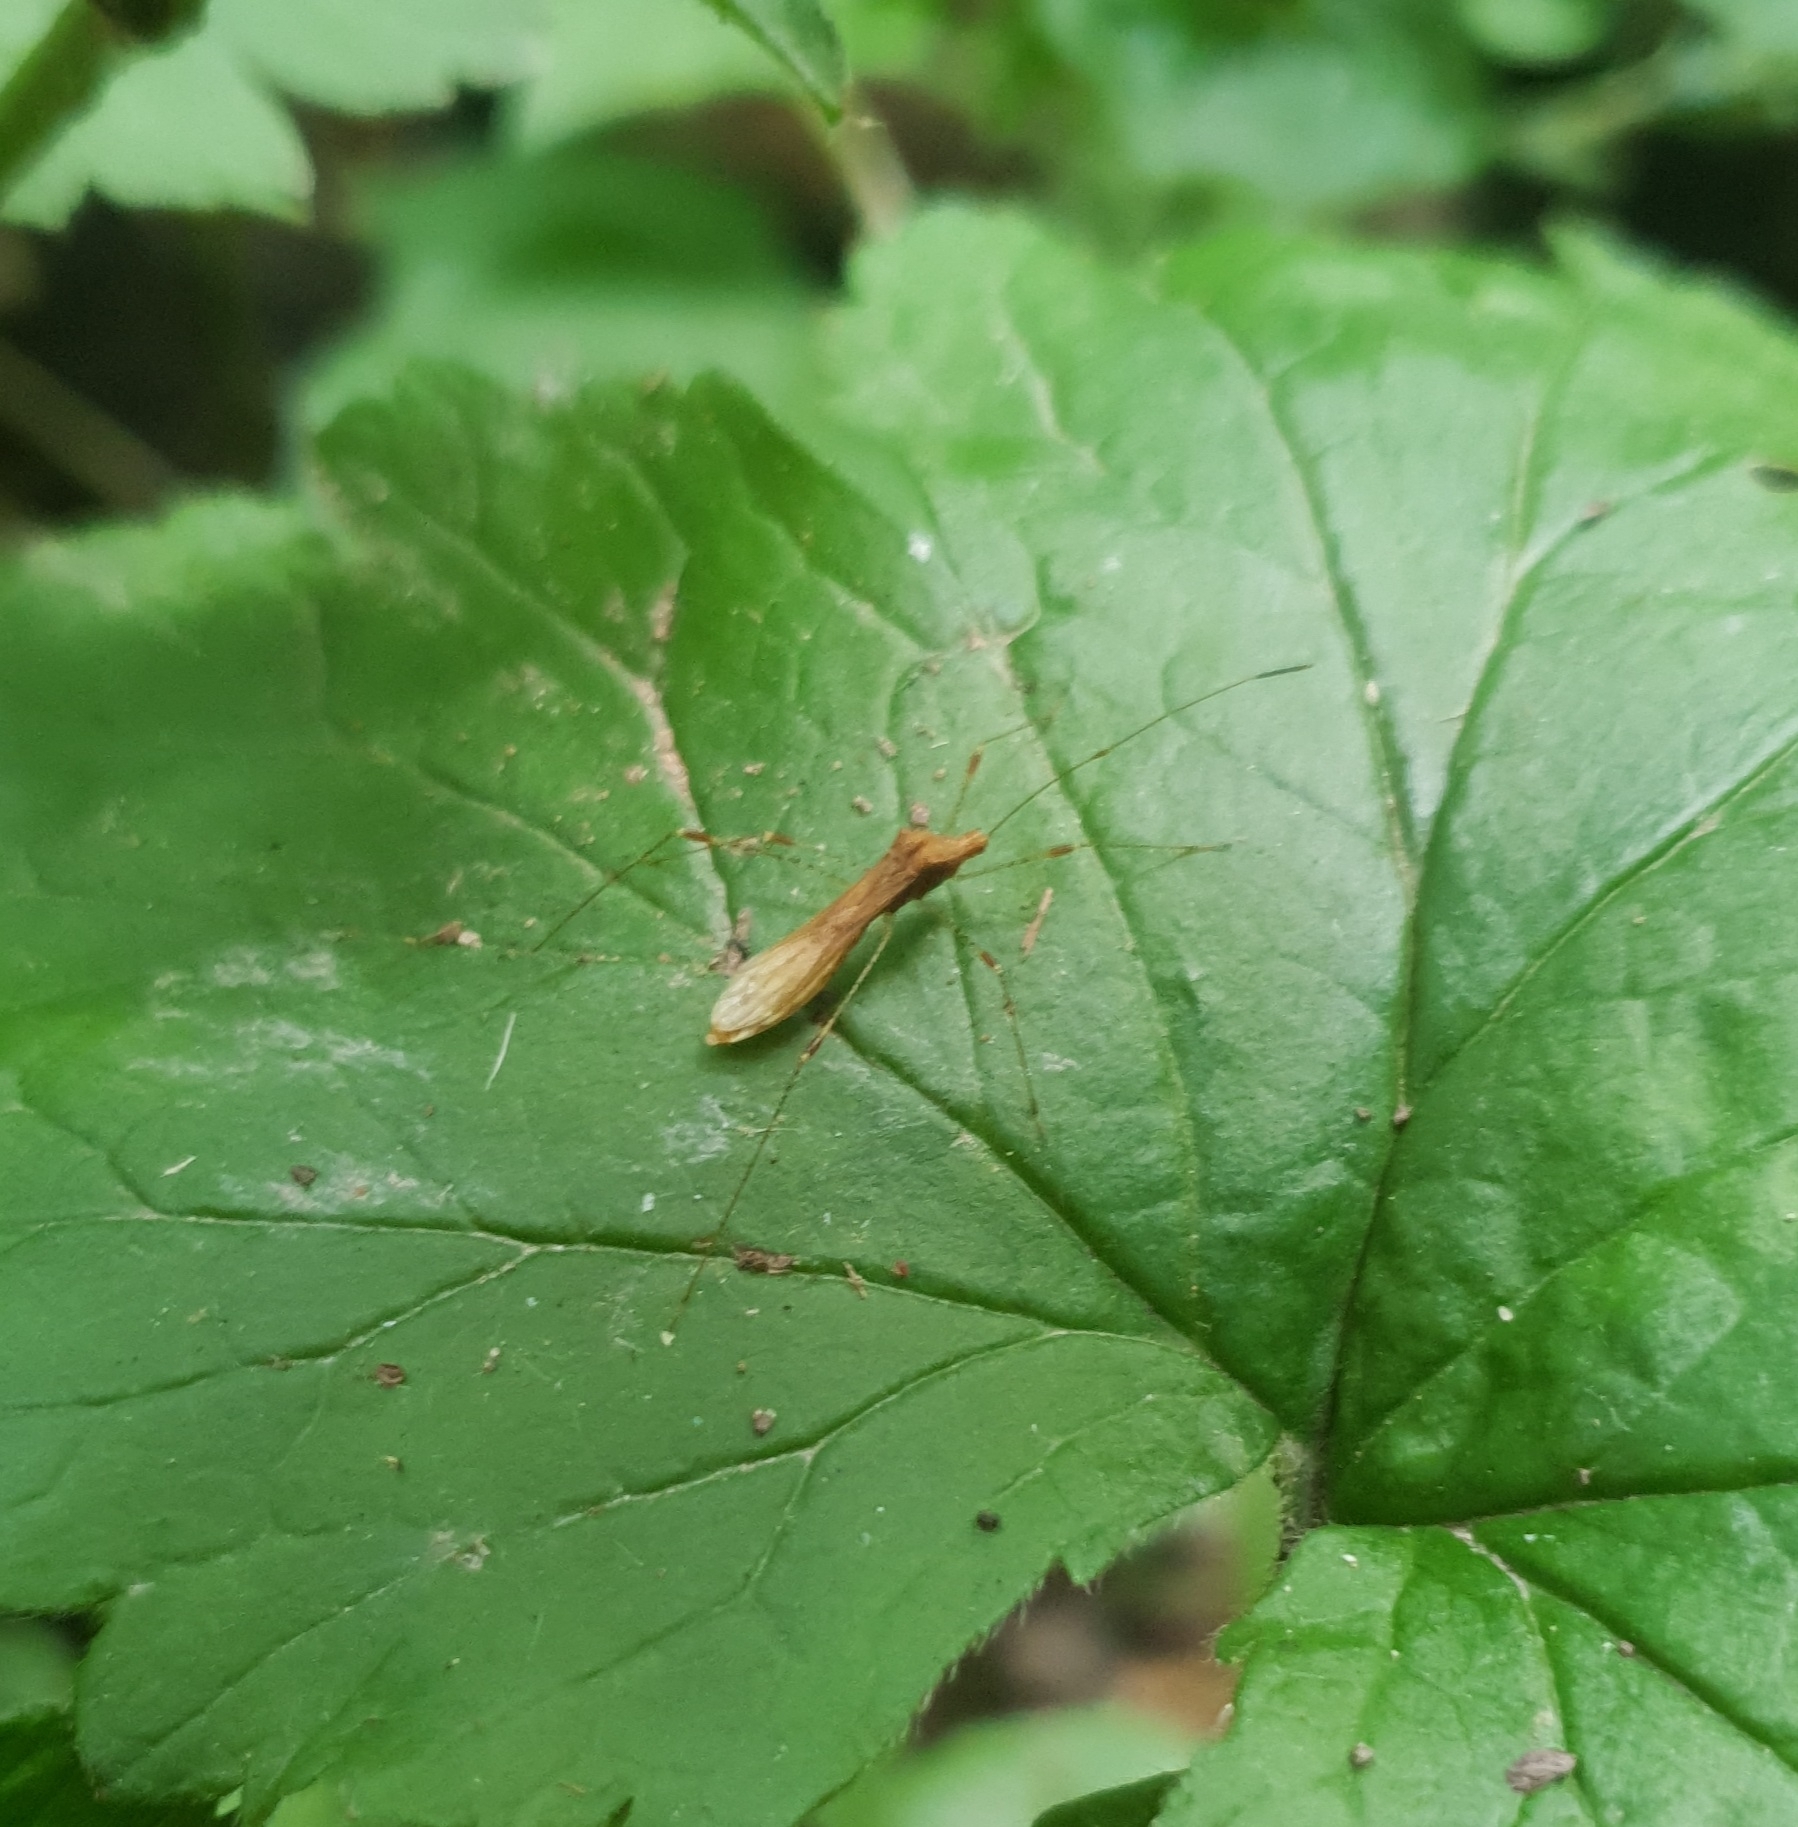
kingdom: Animalia
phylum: Arthropoda
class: Insecta
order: Hemiptera
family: Berytidae
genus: Metatropis
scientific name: Metatropis rufescens
